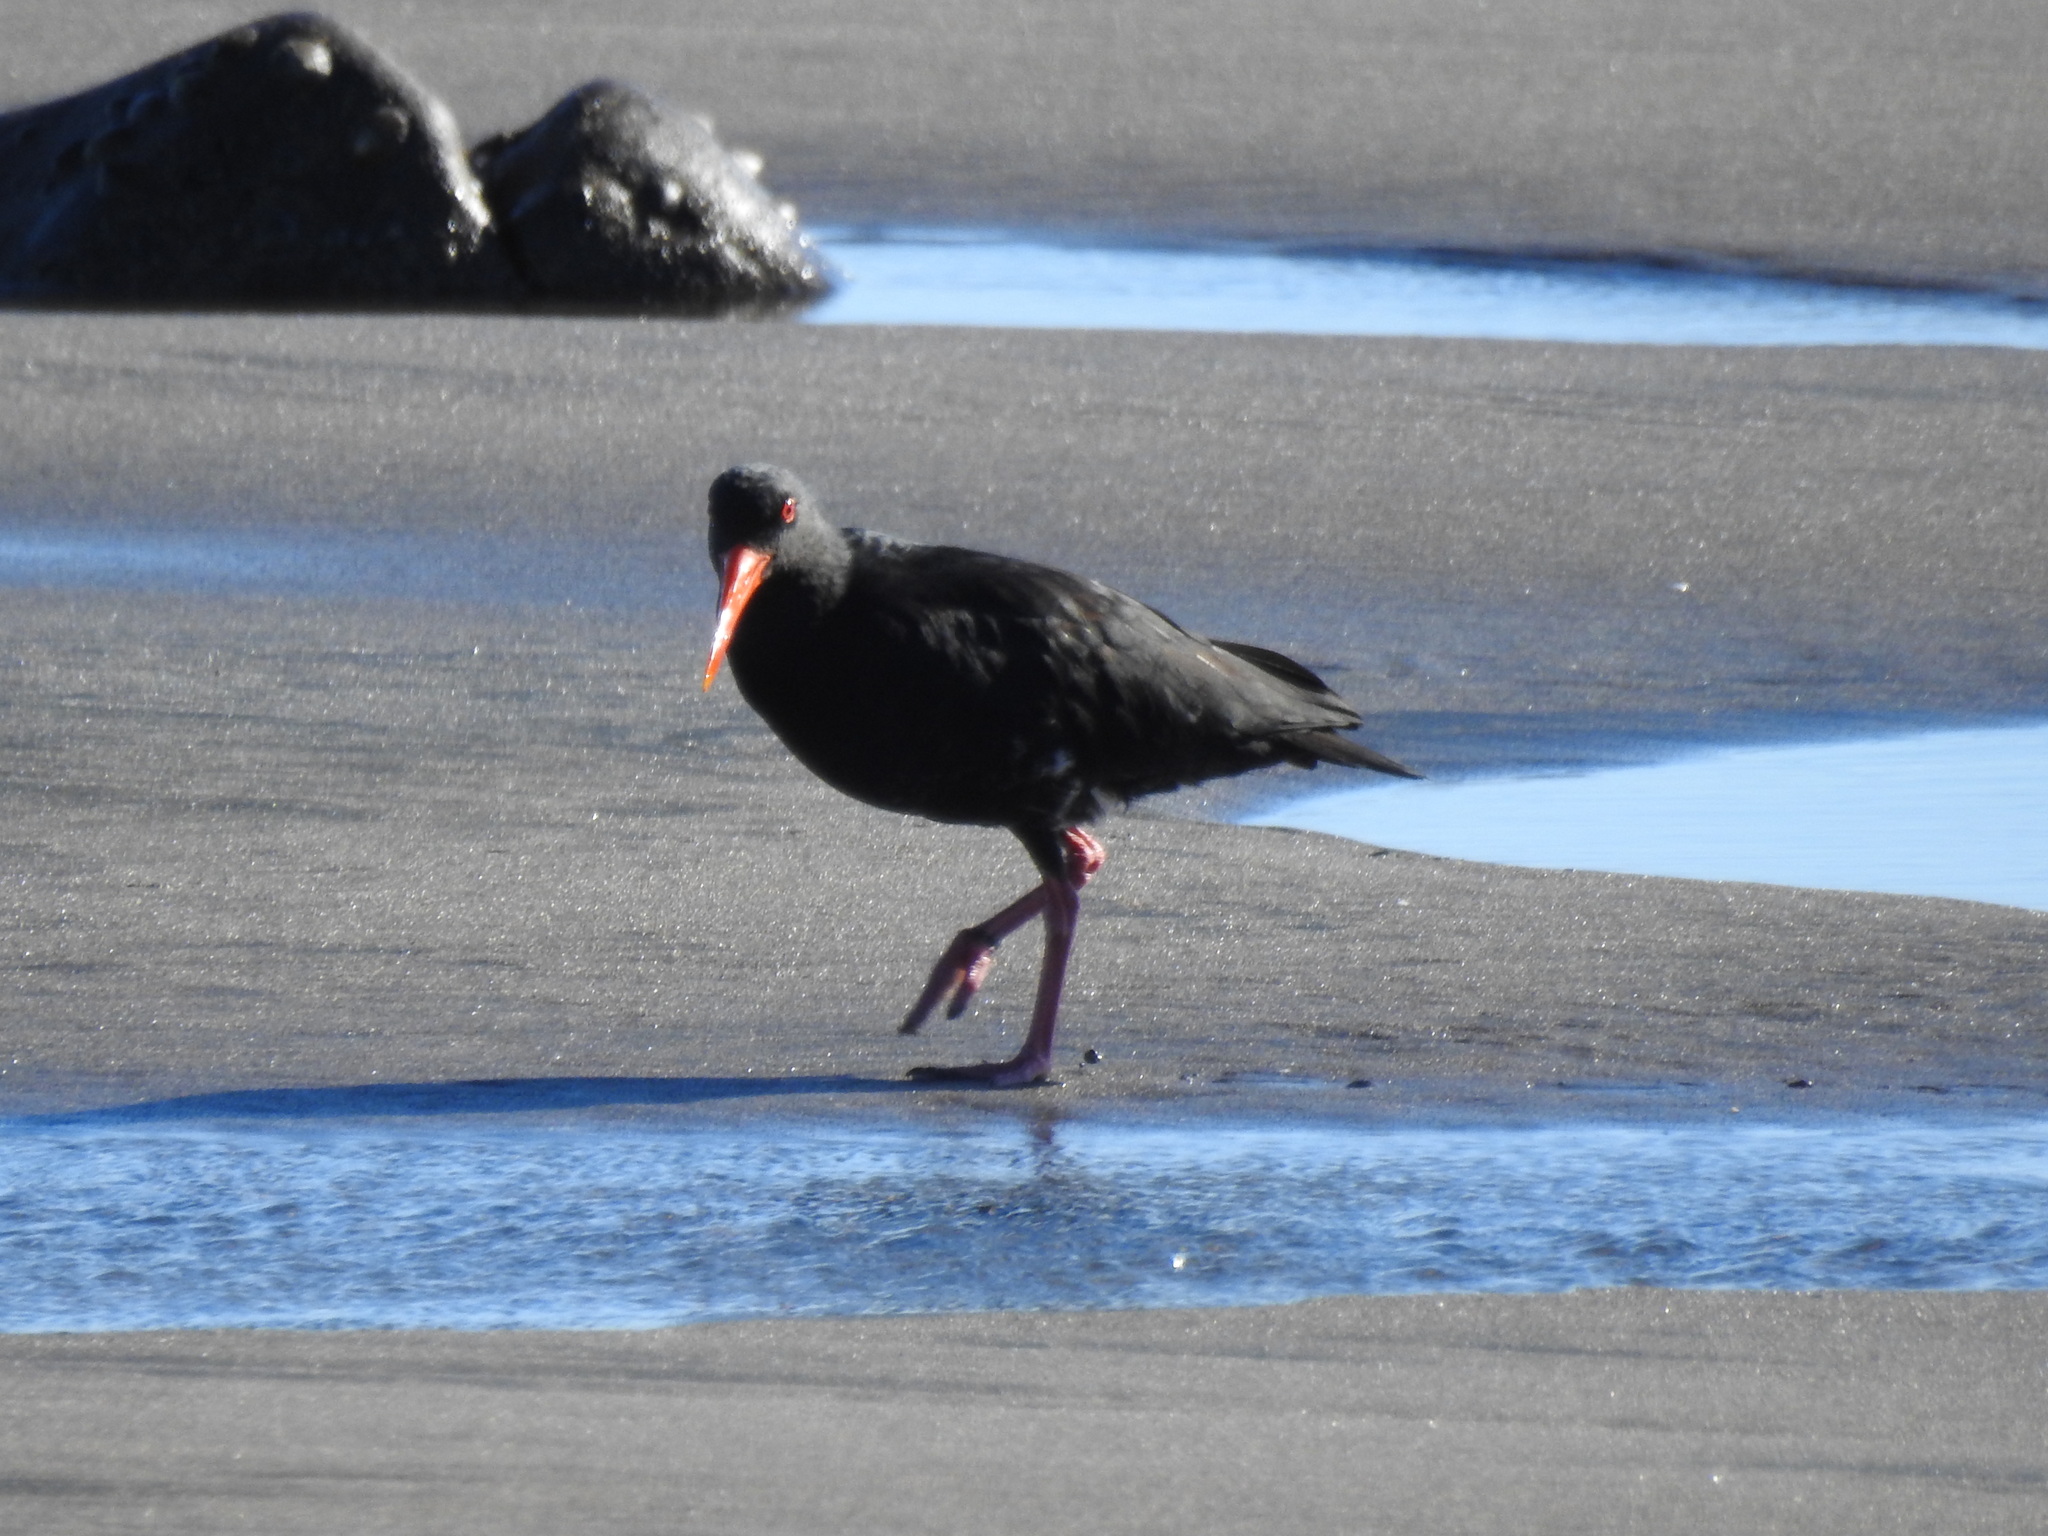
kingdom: Animalia
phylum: Chordata
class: Aves
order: Charadriiformes
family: Haematopodidae
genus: Haematopus
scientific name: Haematopus unicolor
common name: Variable oystercatcher
